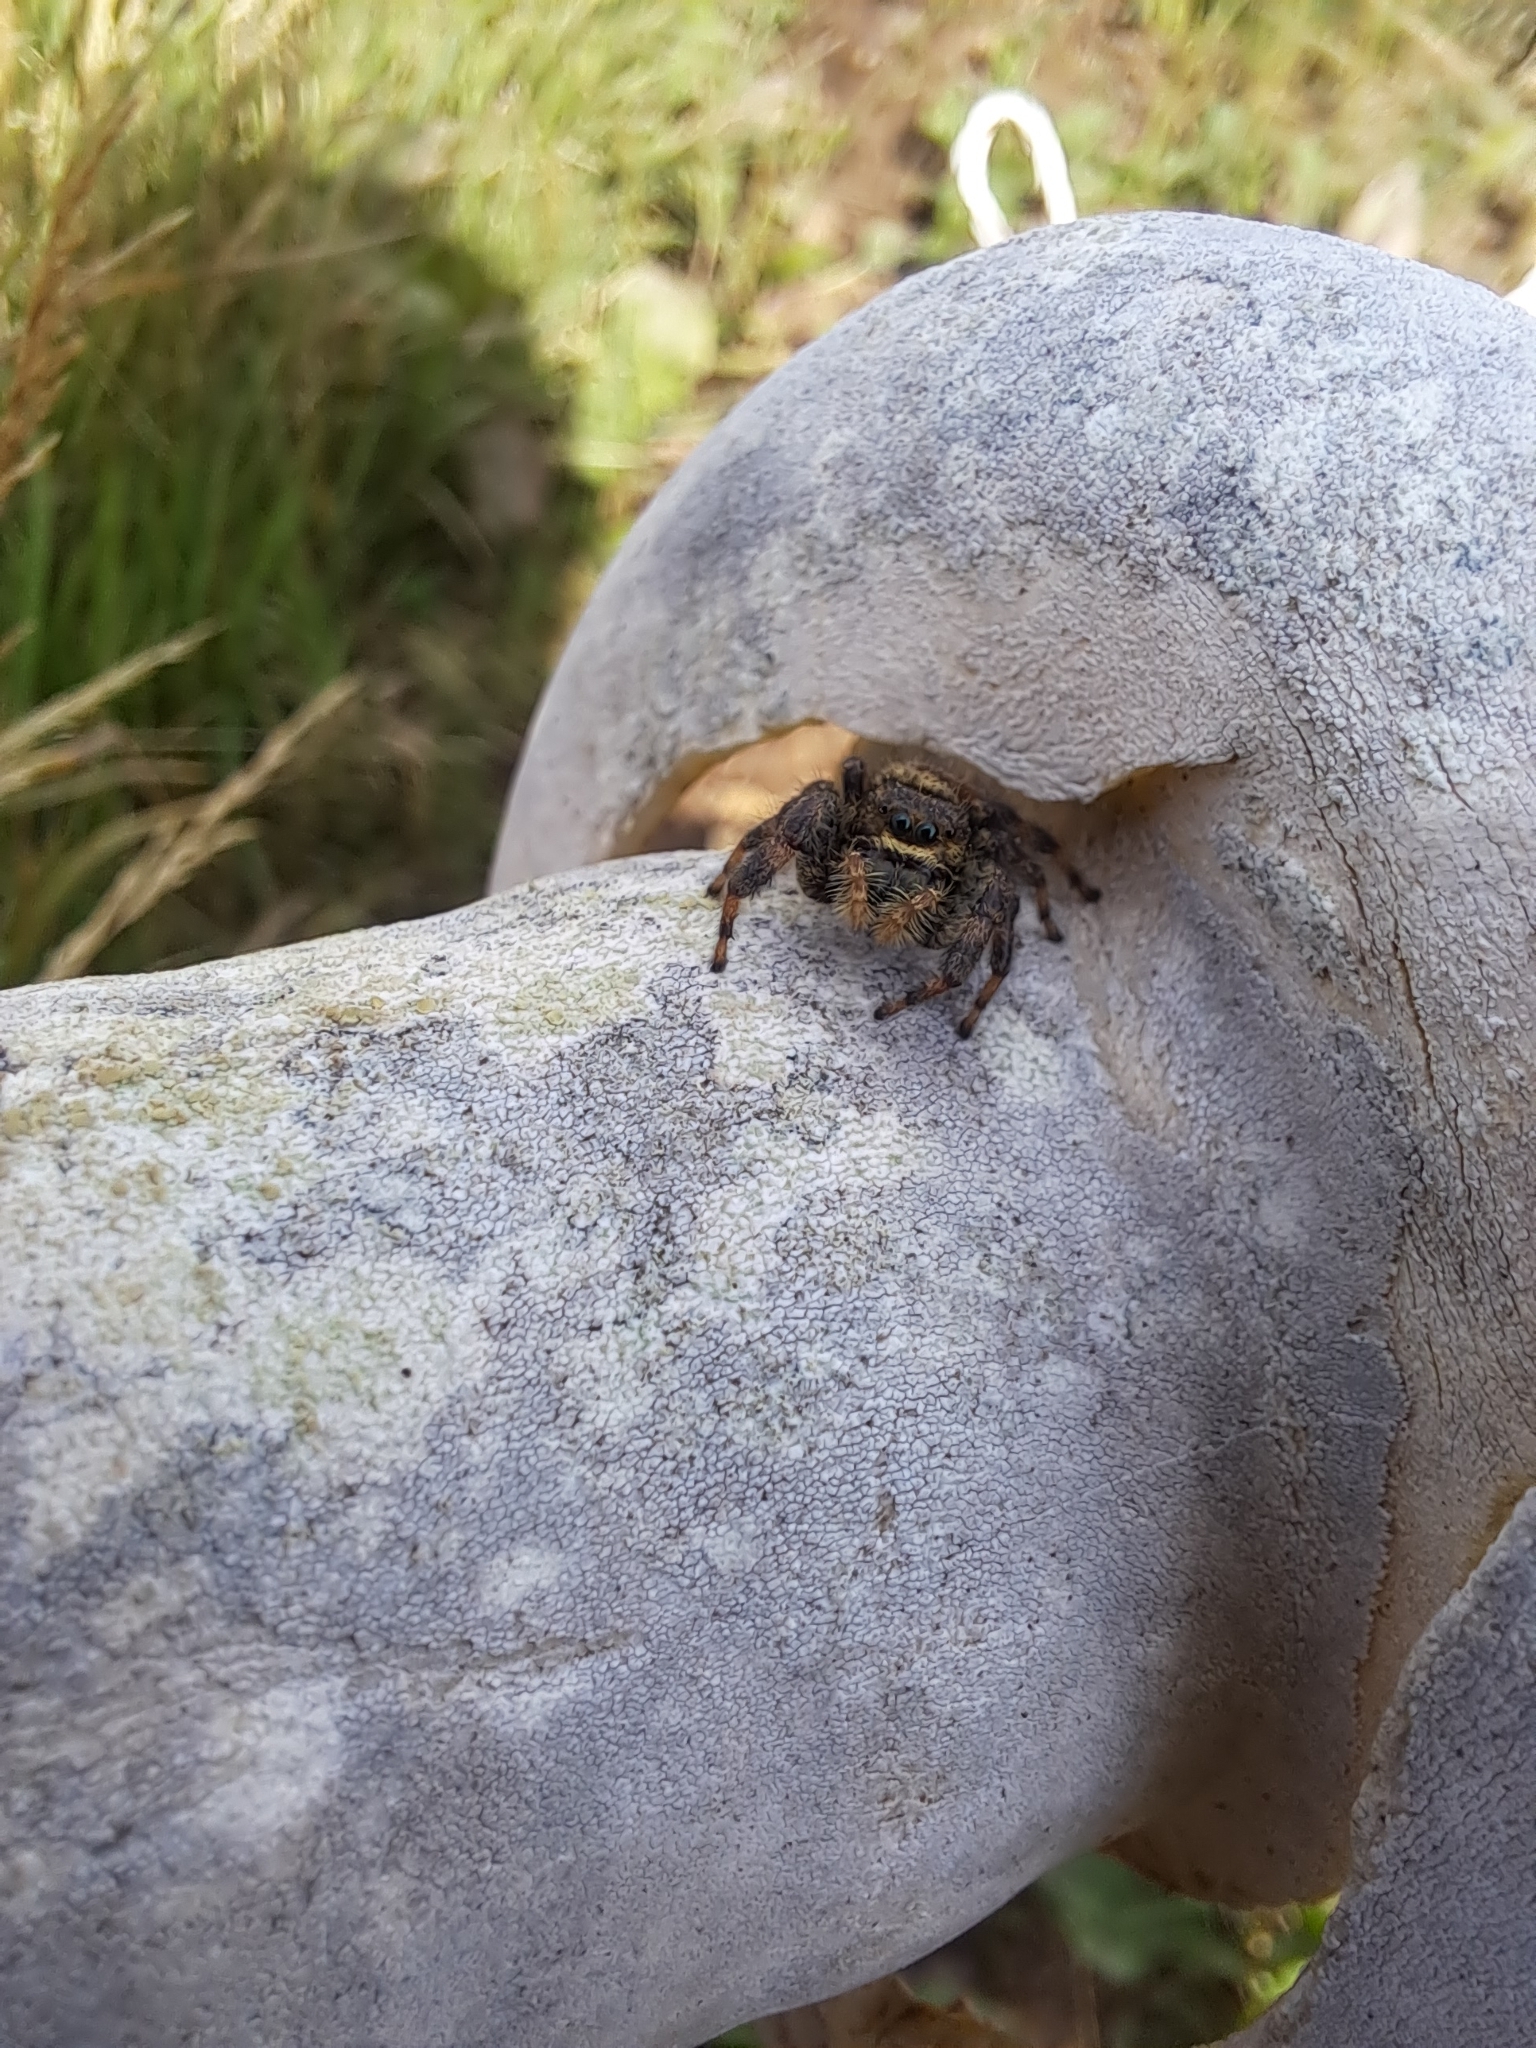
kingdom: Animalia
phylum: Arthropoda
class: Arachnida
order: Araneae
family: Salticidae
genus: Phidippus
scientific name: Phidippus clarus
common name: Brilliant jumping spider
